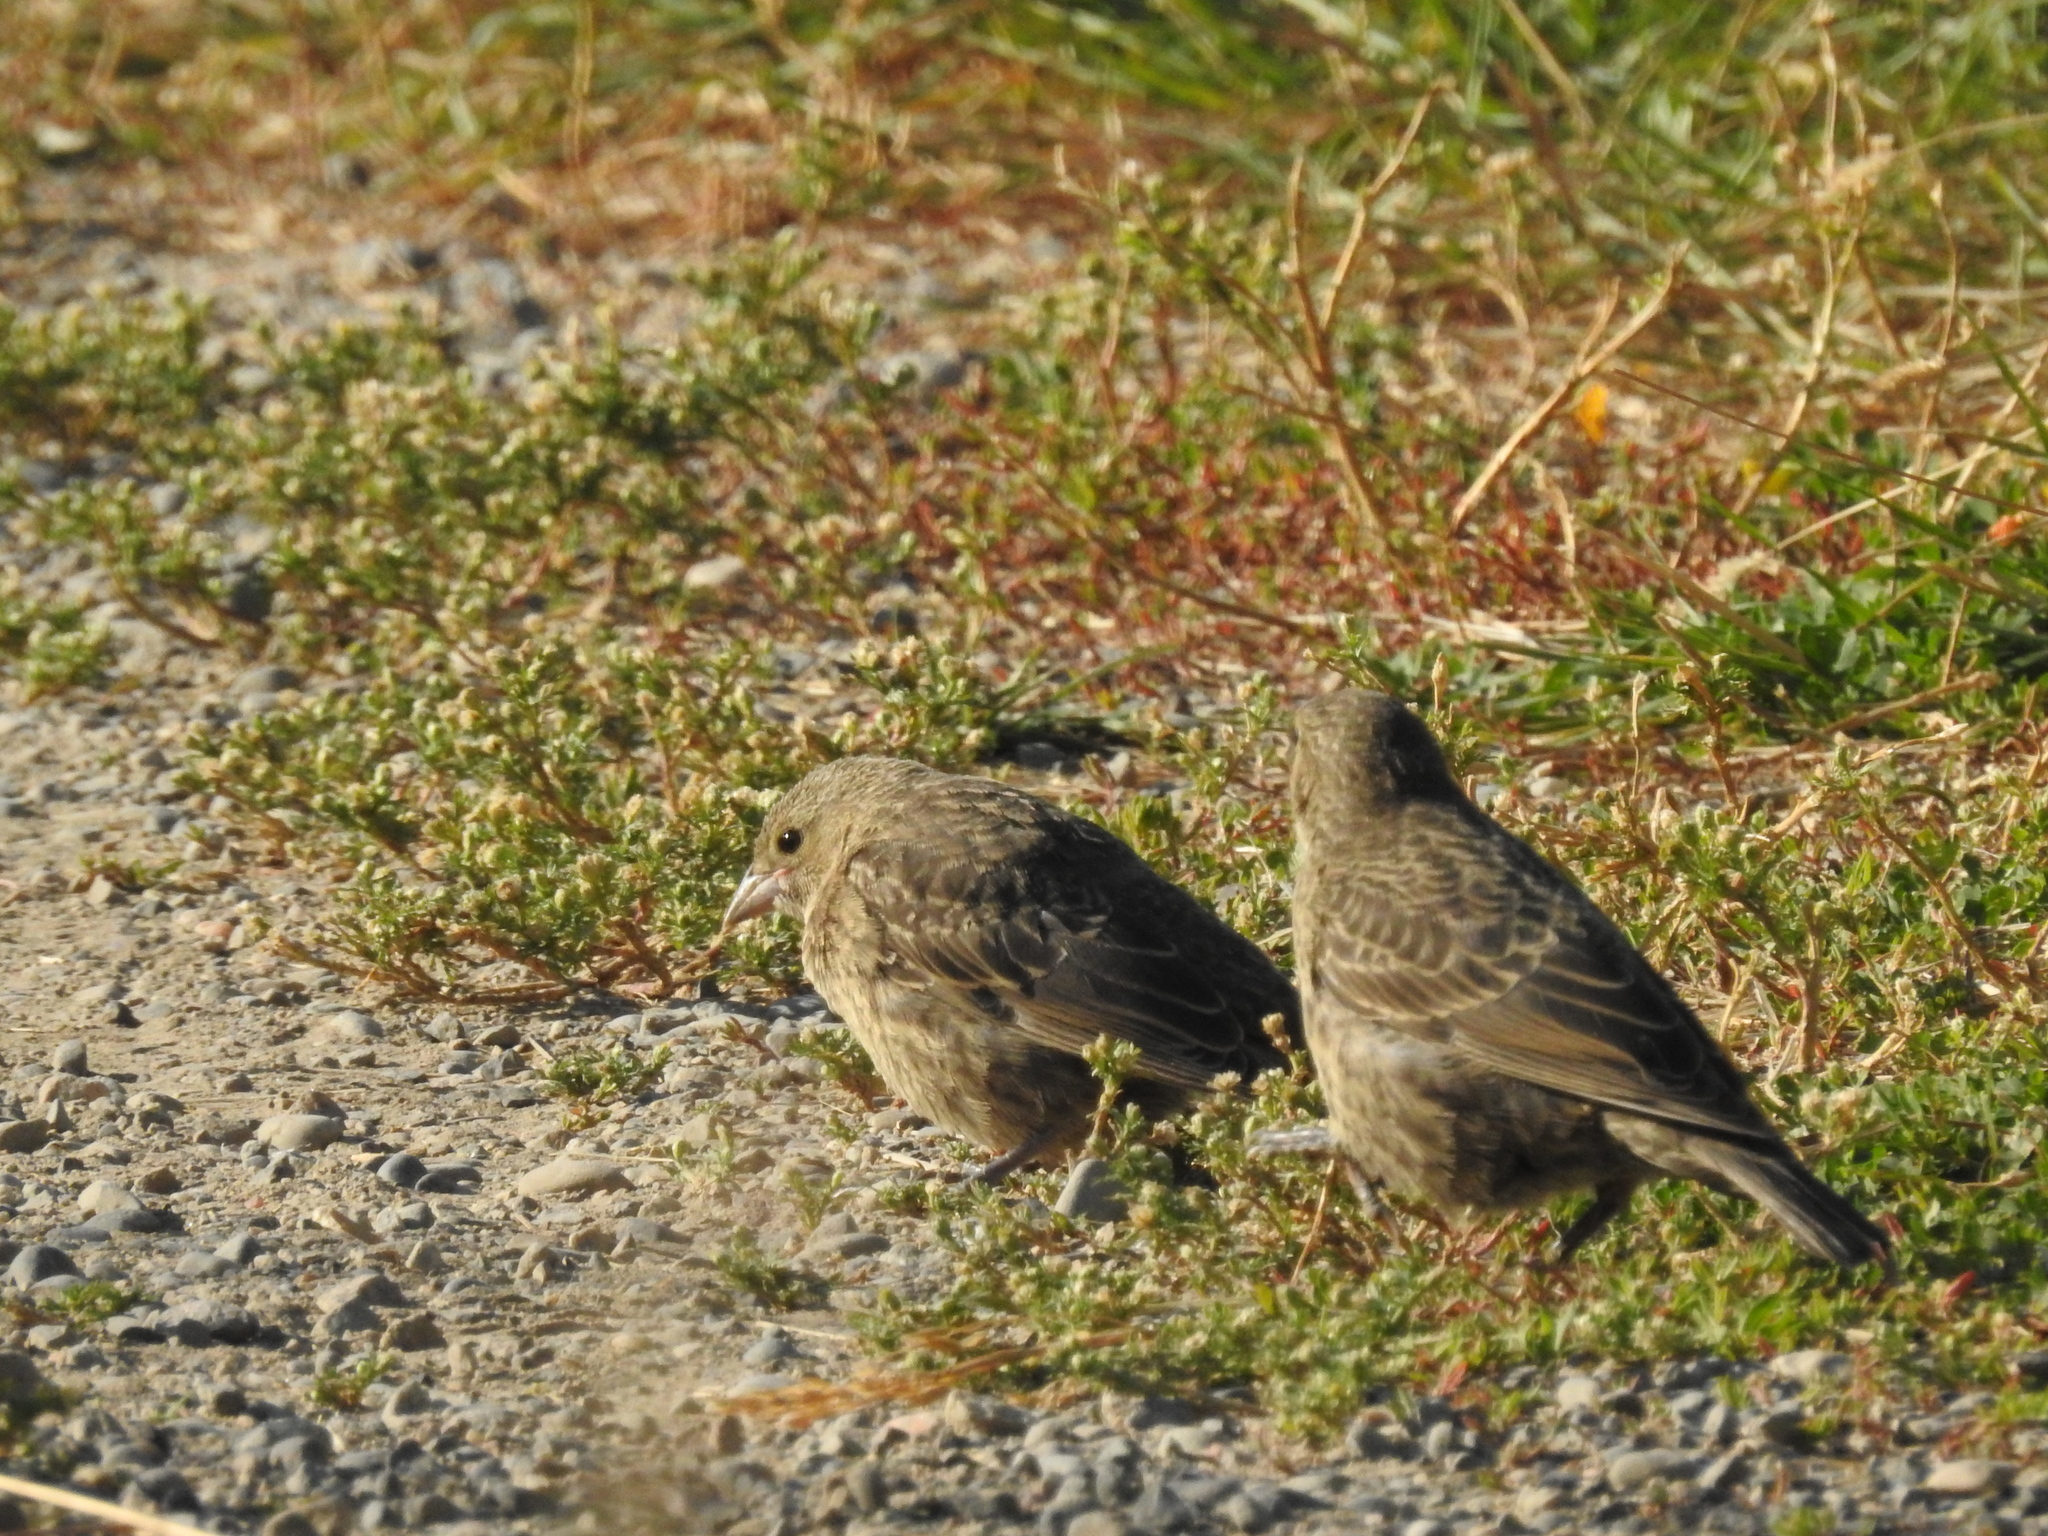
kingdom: Animalia
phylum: Chordata
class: Aves
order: Passeriformes
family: Icteridae
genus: Molothrus
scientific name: Molothrus ater
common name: Brown-headed cowbird
